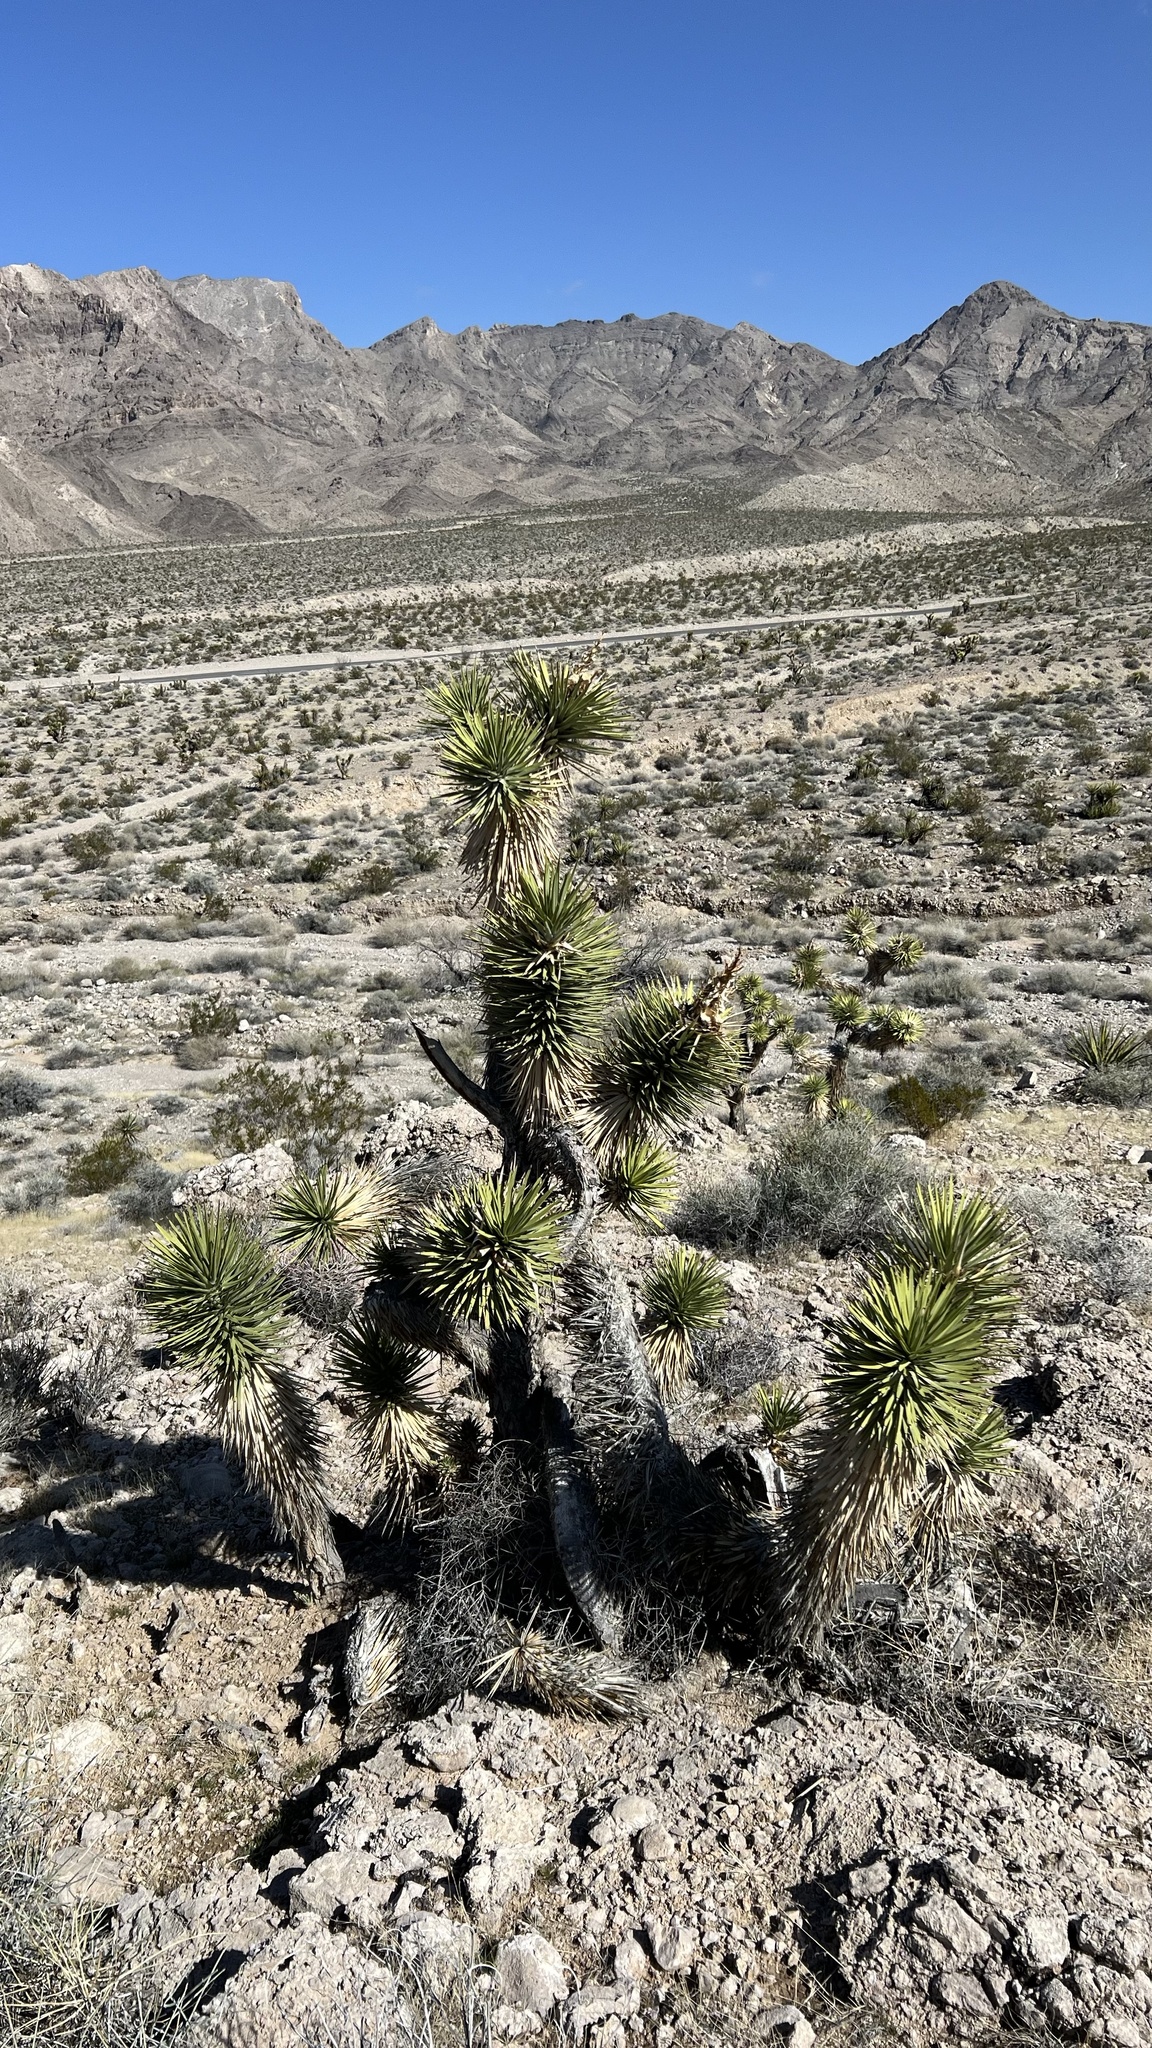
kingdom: Plantae
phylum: Tracheophyta
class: Liliopsida
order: Asparagales
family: Asparagaceae
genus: Yucca
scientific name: Yucca brevifolia
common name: Joshua tree
